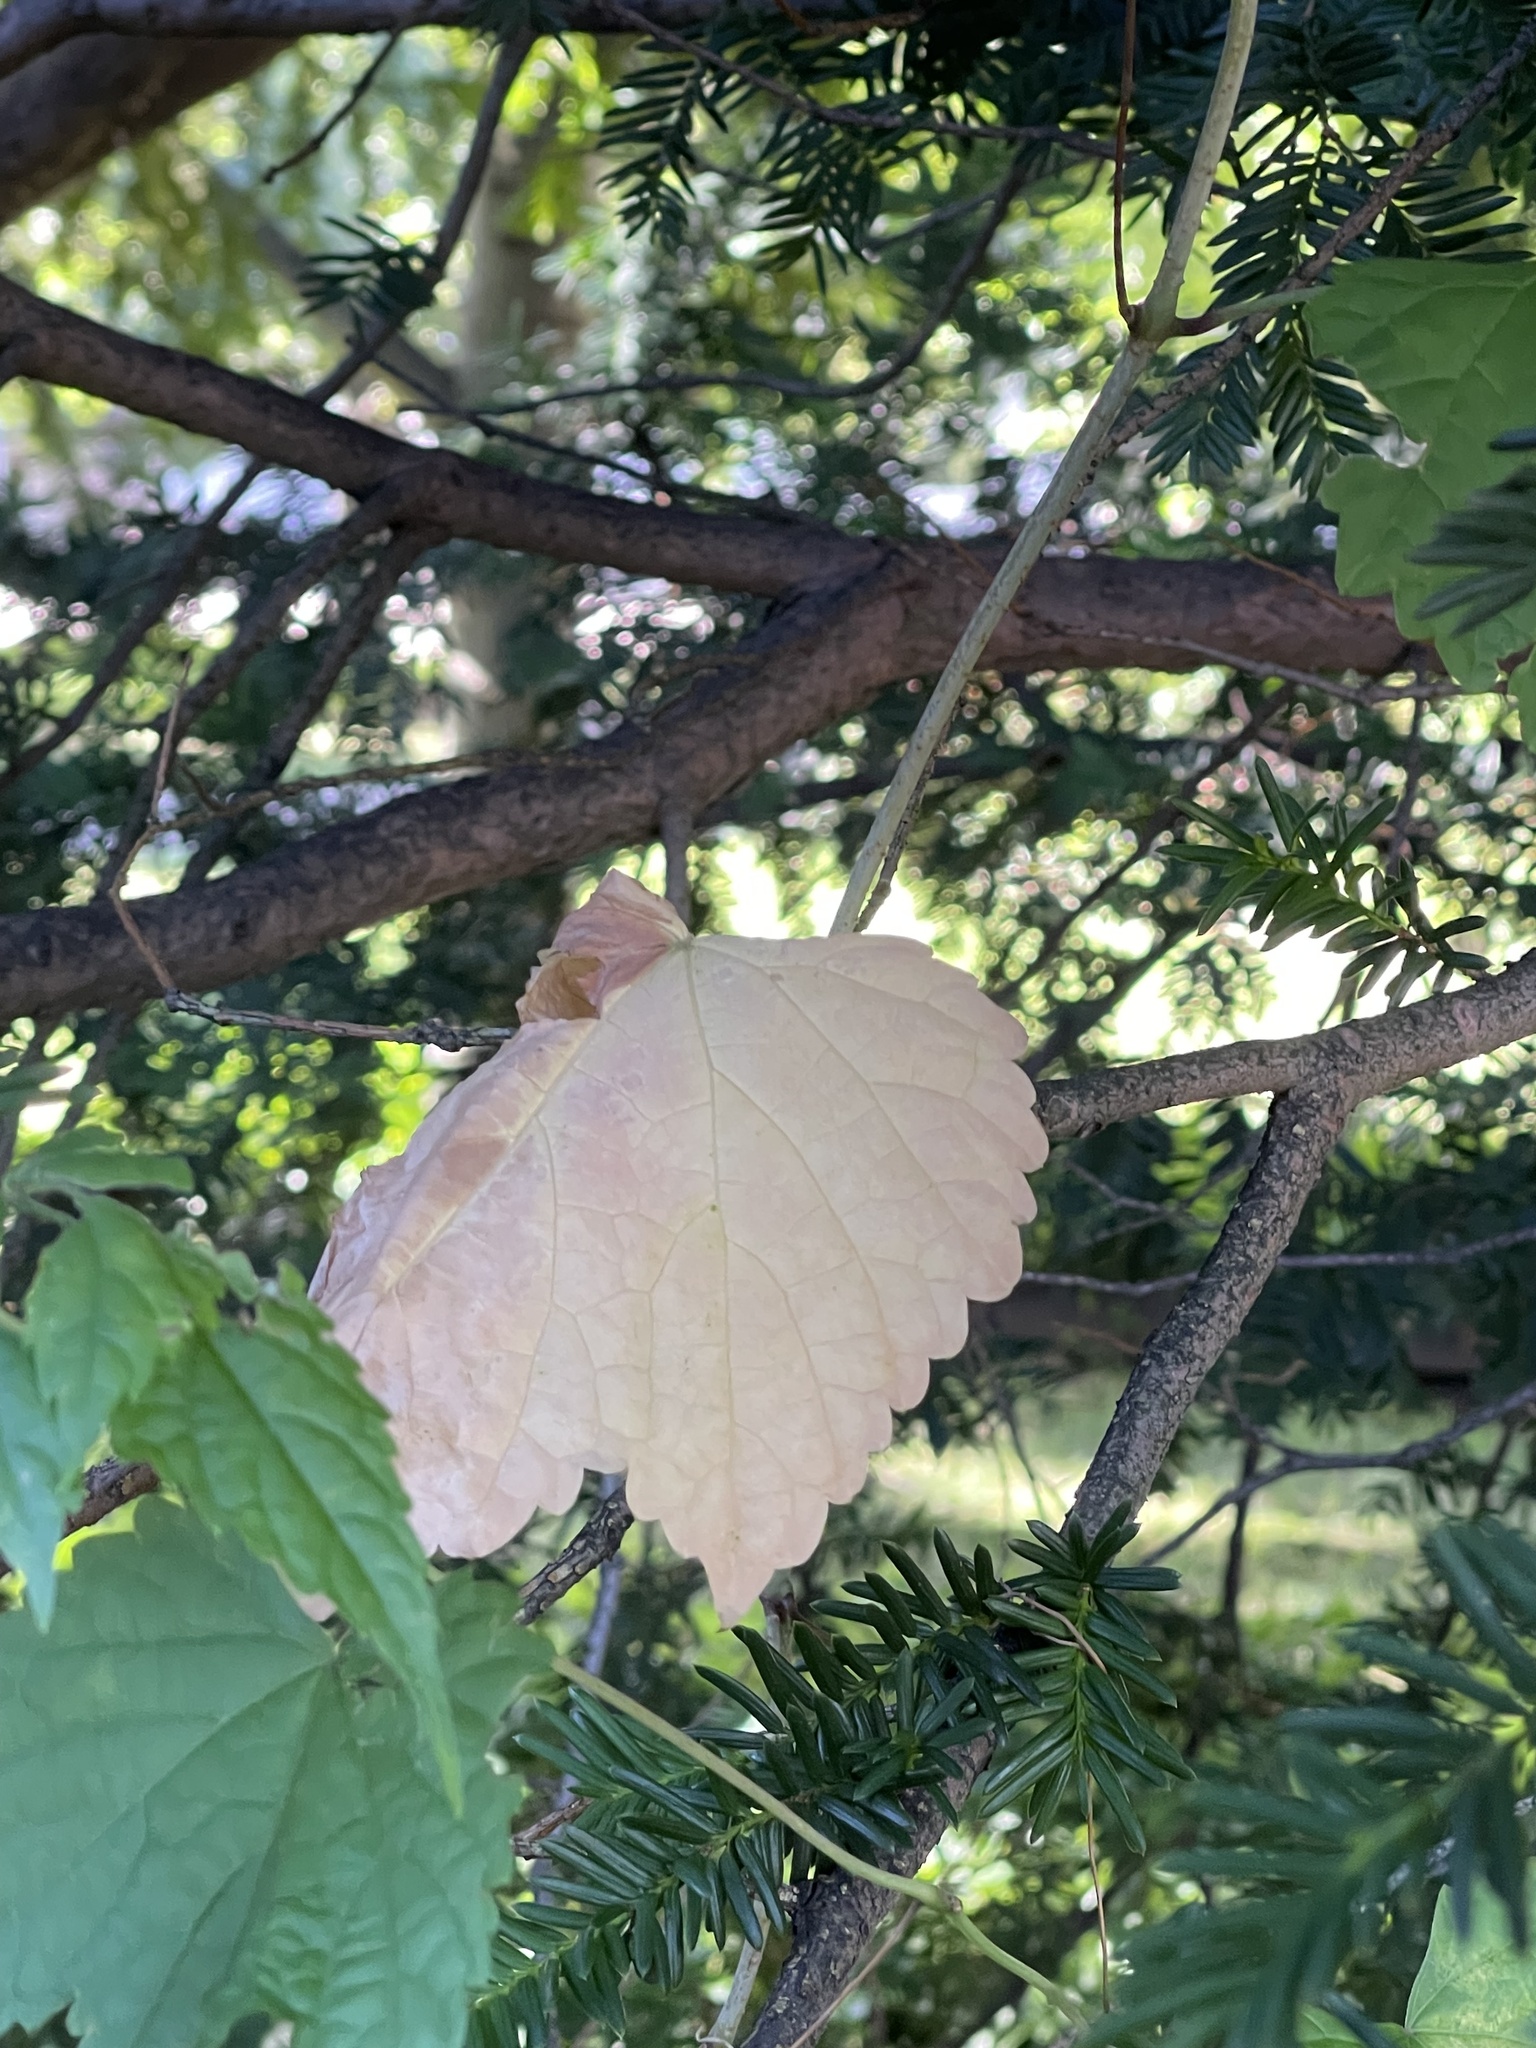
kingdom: Plantae
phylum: Tracheophyta
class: Magnoliopsida
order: Vitales
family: Vitaceae
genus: Ampelopsis
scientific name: Ampelopsis glandulosa
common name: Amur peppervine
